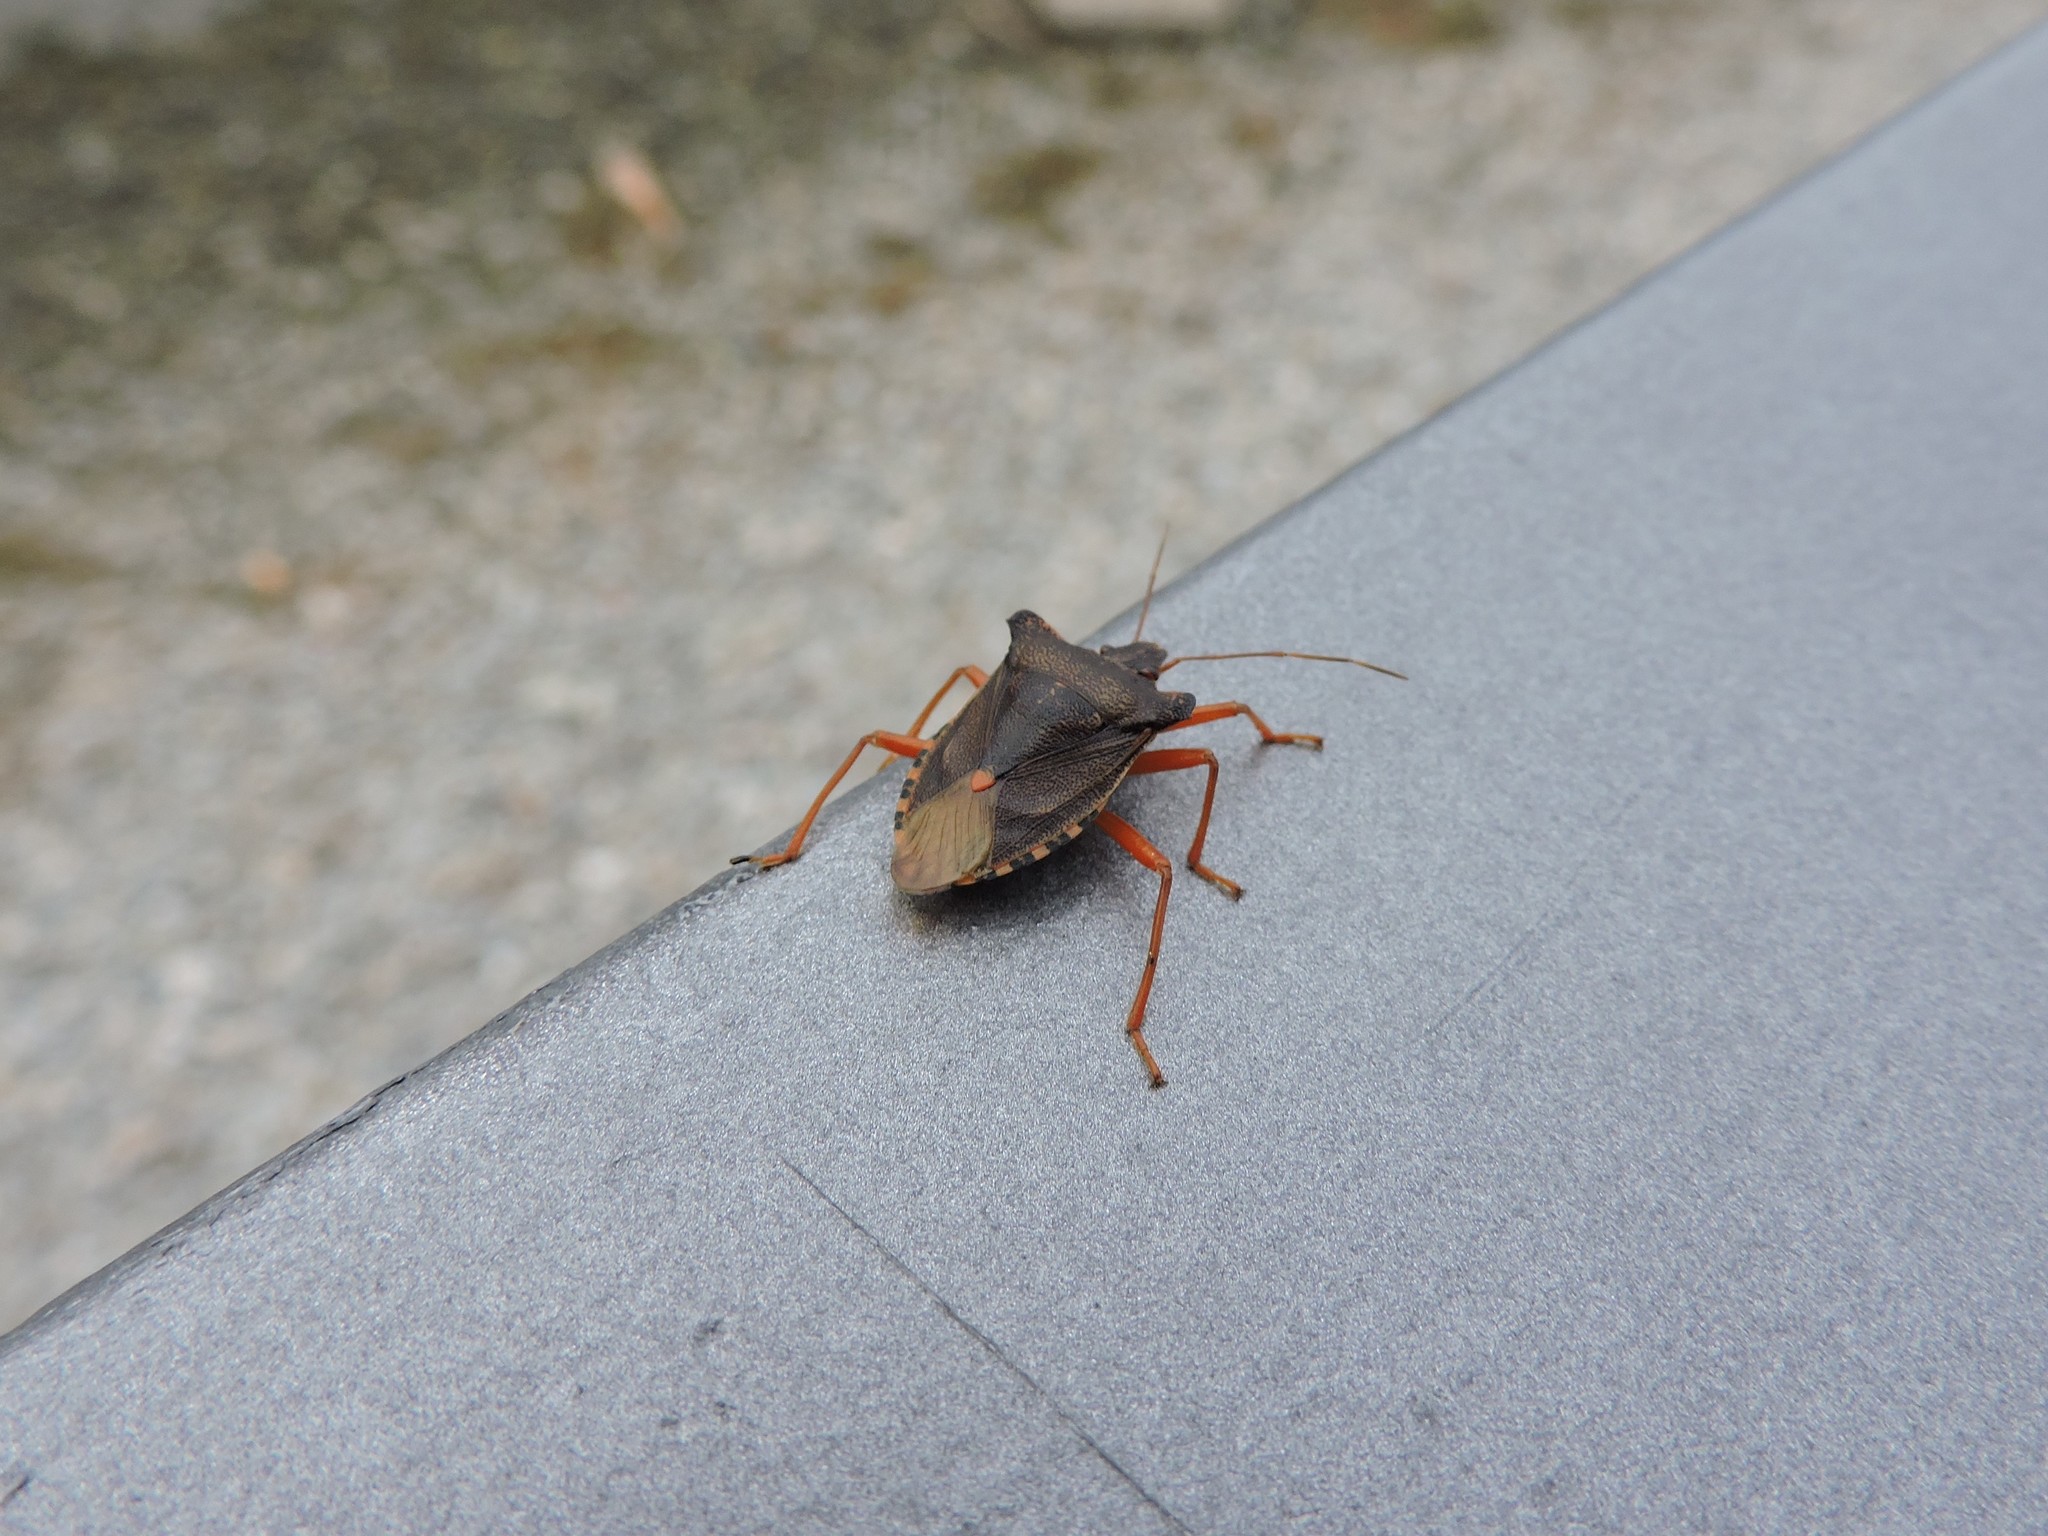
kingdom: Animalia
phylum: Arthropoda
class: Insecta
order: Hemiptera
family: Pentatomidae
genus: Pentatoma
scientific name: Pentatoma rufipes
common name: Forest bug
